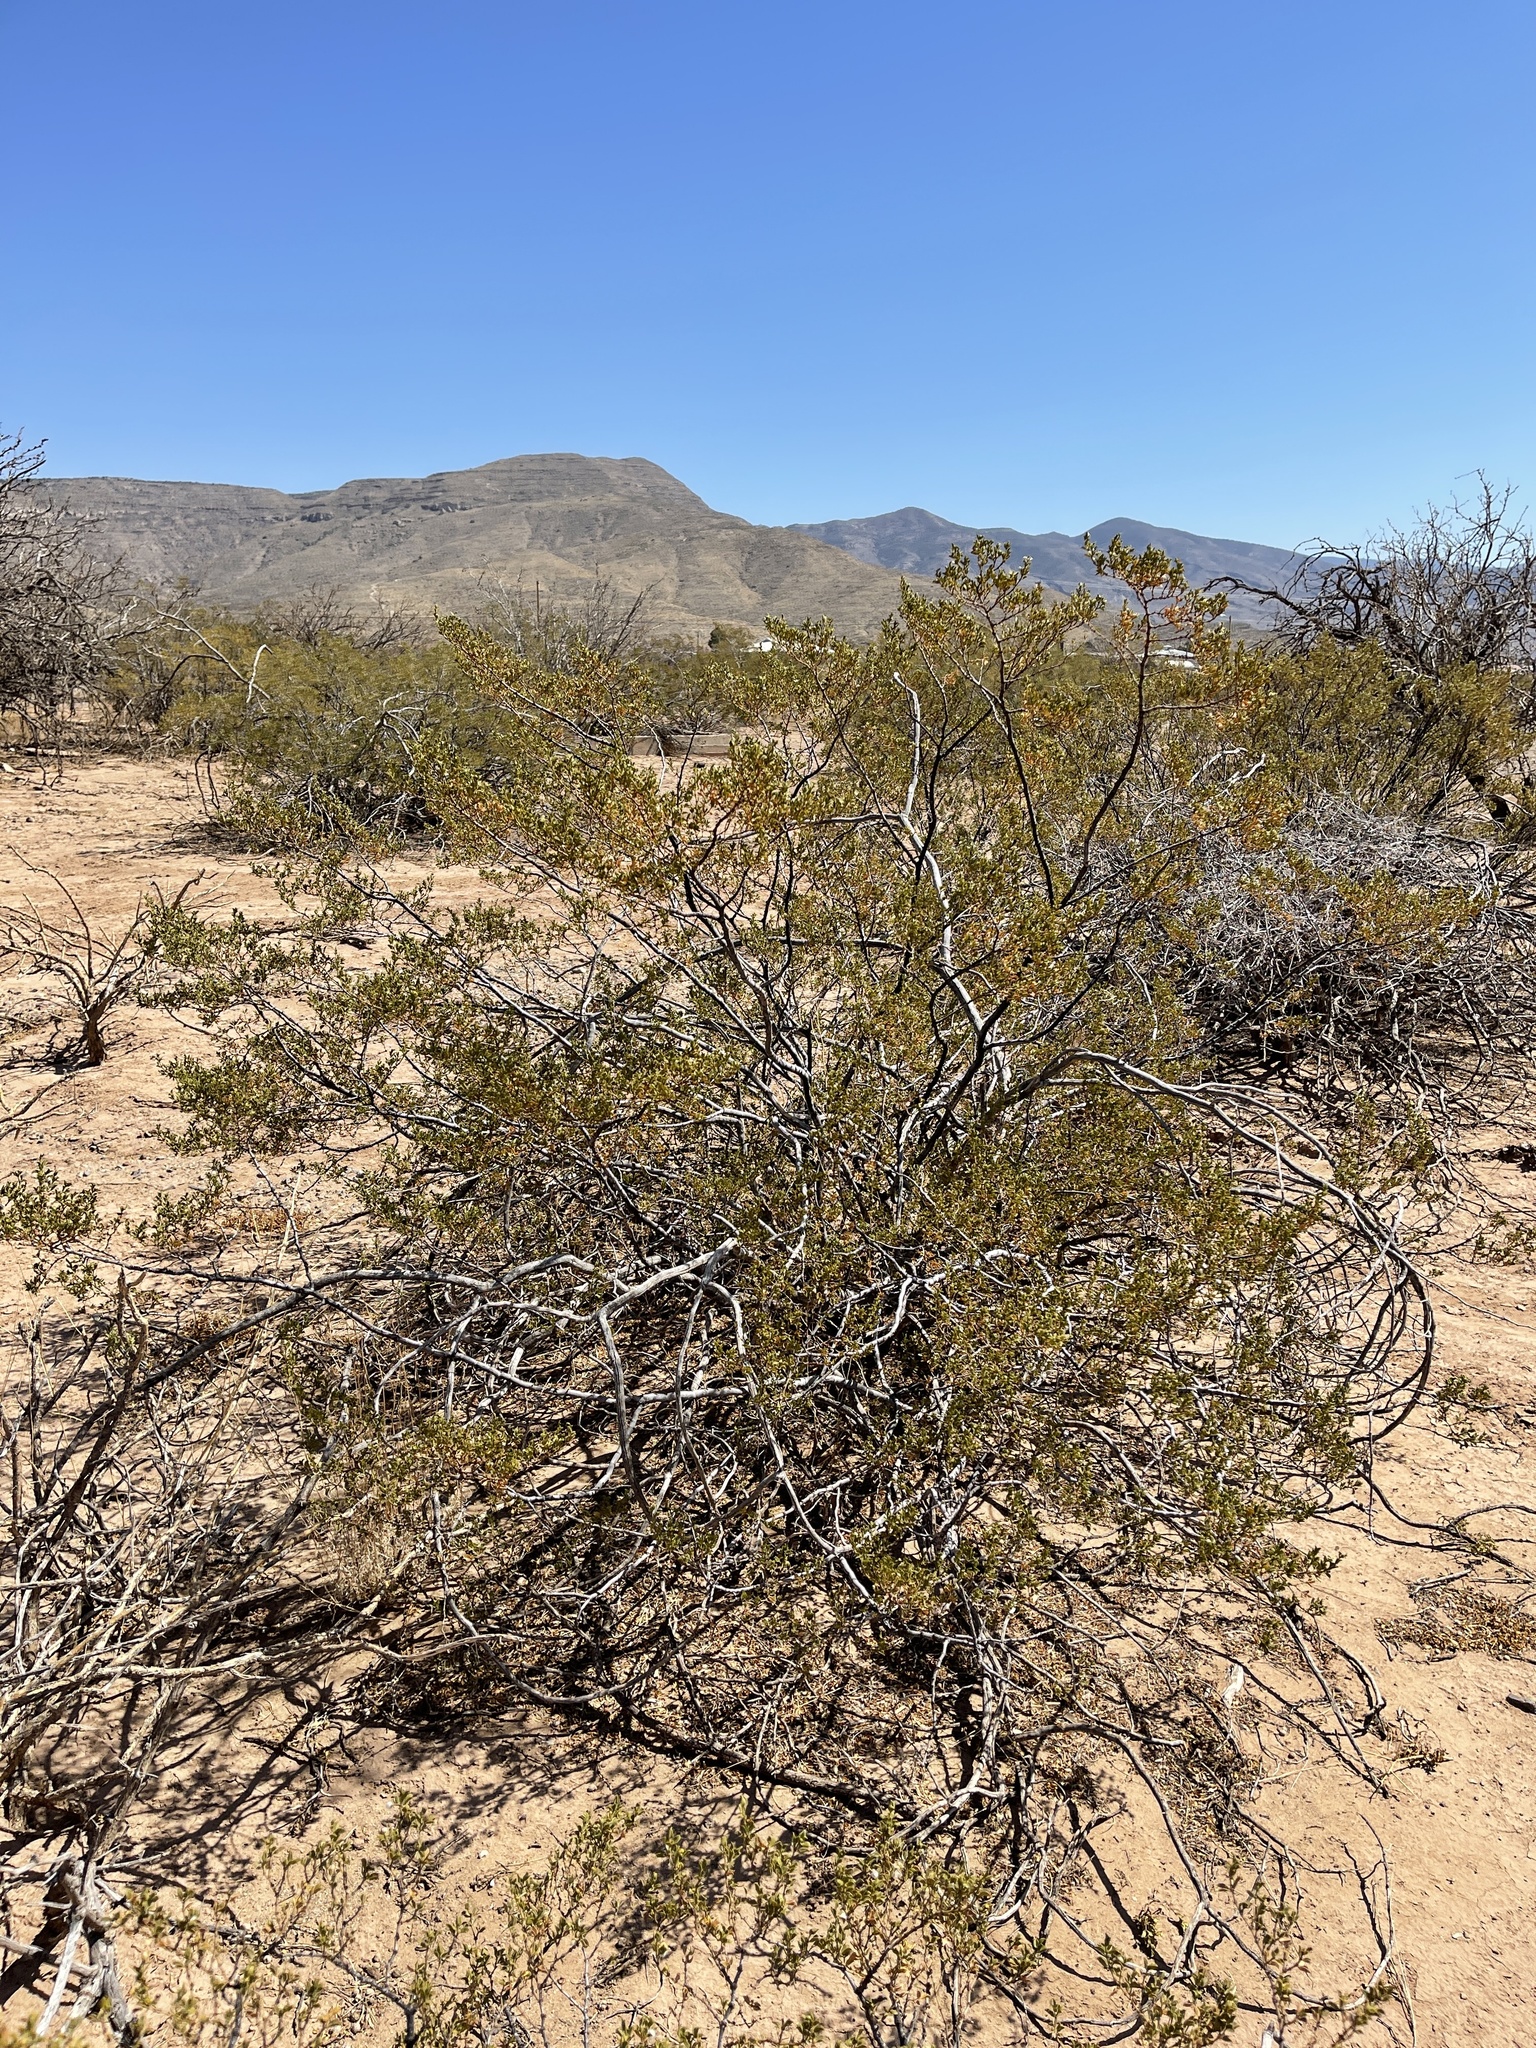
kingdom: Plantae
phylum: Tracheophyta
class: Magnoliopsida
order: Zygophyllales
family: Zygophyllaceae
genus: Larrea
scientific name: Larrea tridentata
